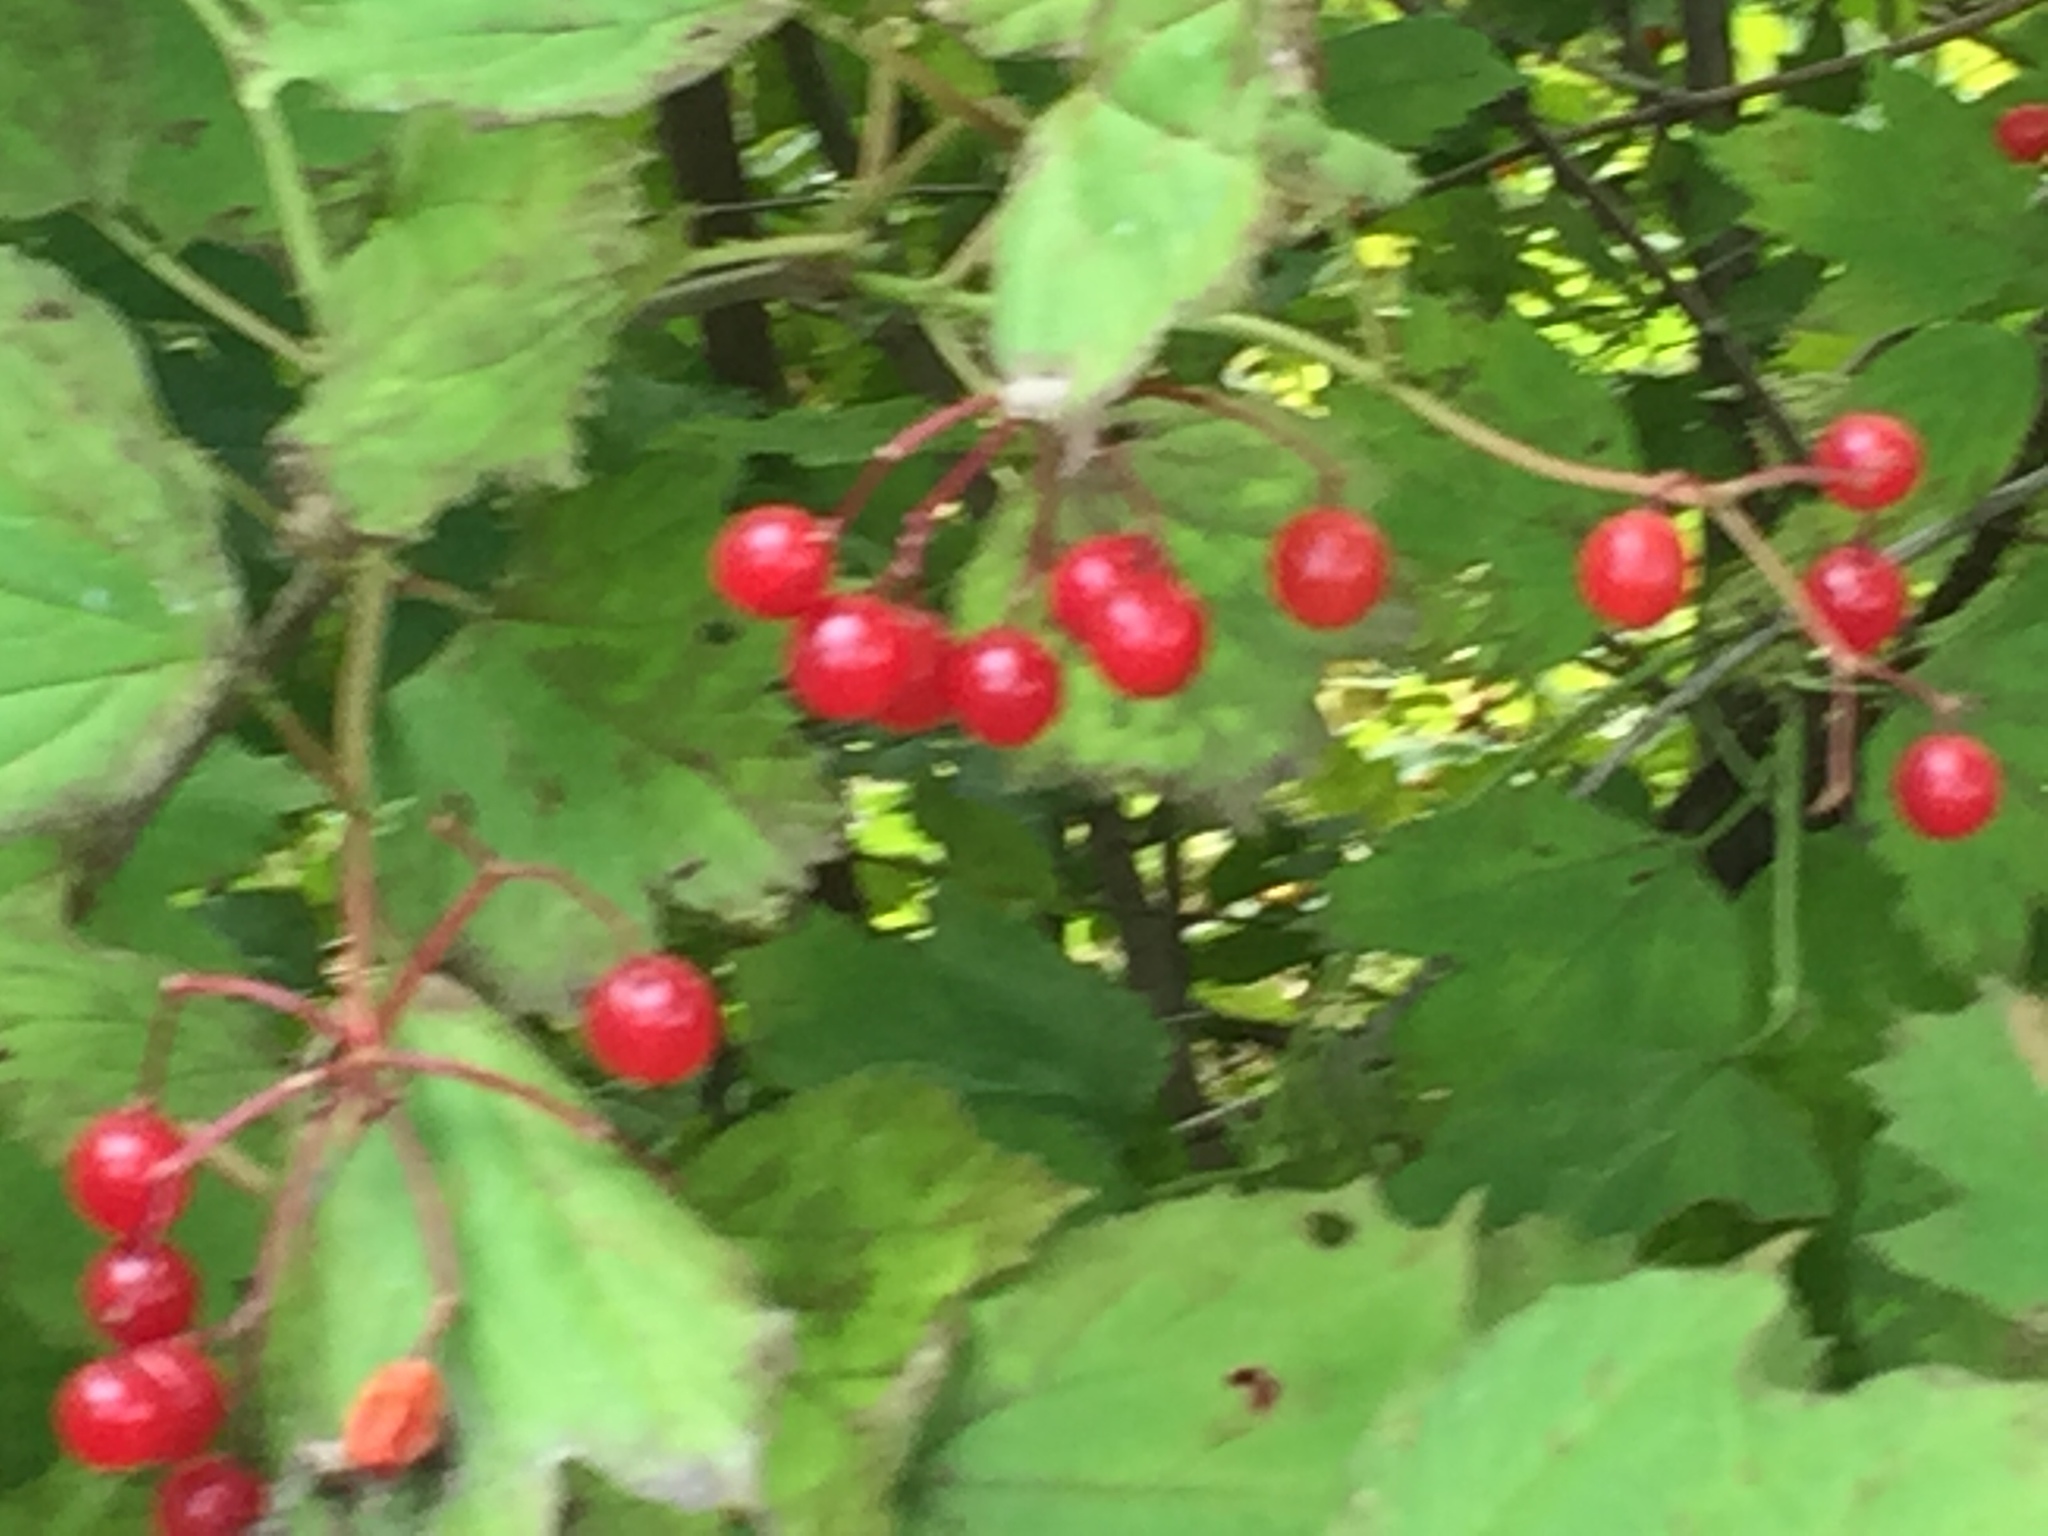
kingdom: Plantae
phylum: Tracheophyta
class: Magnoliopsida
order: Dipsacales
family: Viburnaceae
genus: Viburnum
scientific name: Viburnum opulus
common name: Guelder-rose
